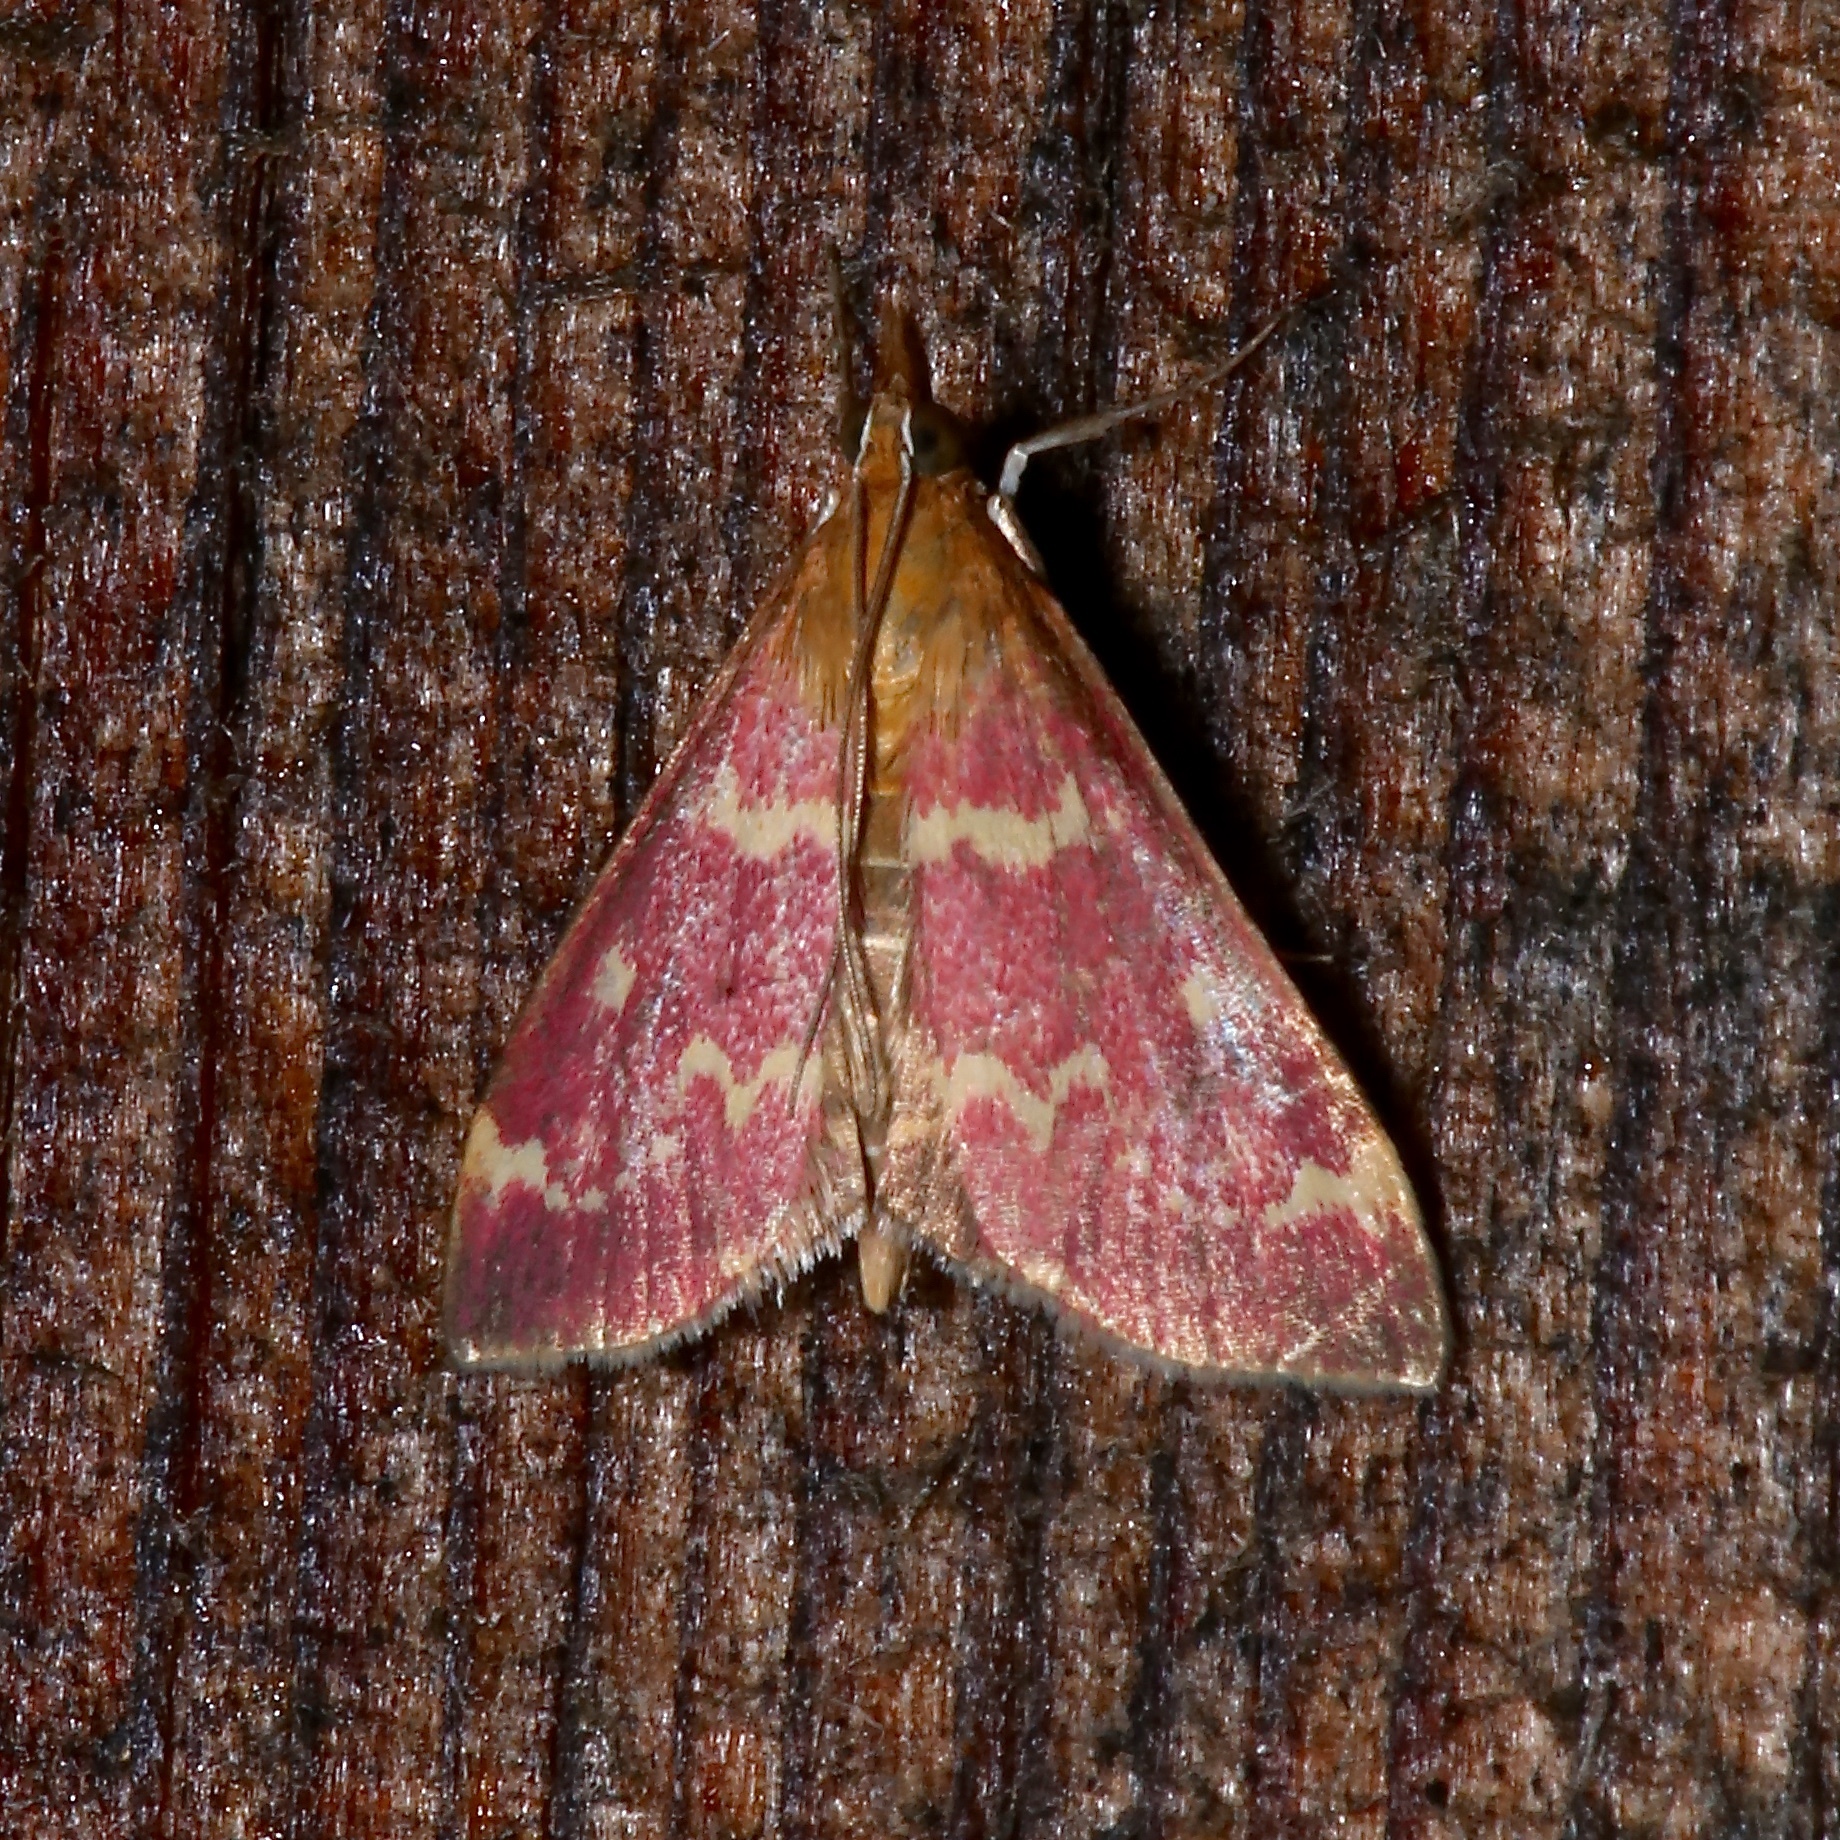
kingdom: Animalia
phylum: Arthropoda
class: Insecta
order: Lepidoptera
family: Crambidae
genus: Pyrausta
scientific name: Pyrausta signatalis
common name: Raspberry pyrausta moth
